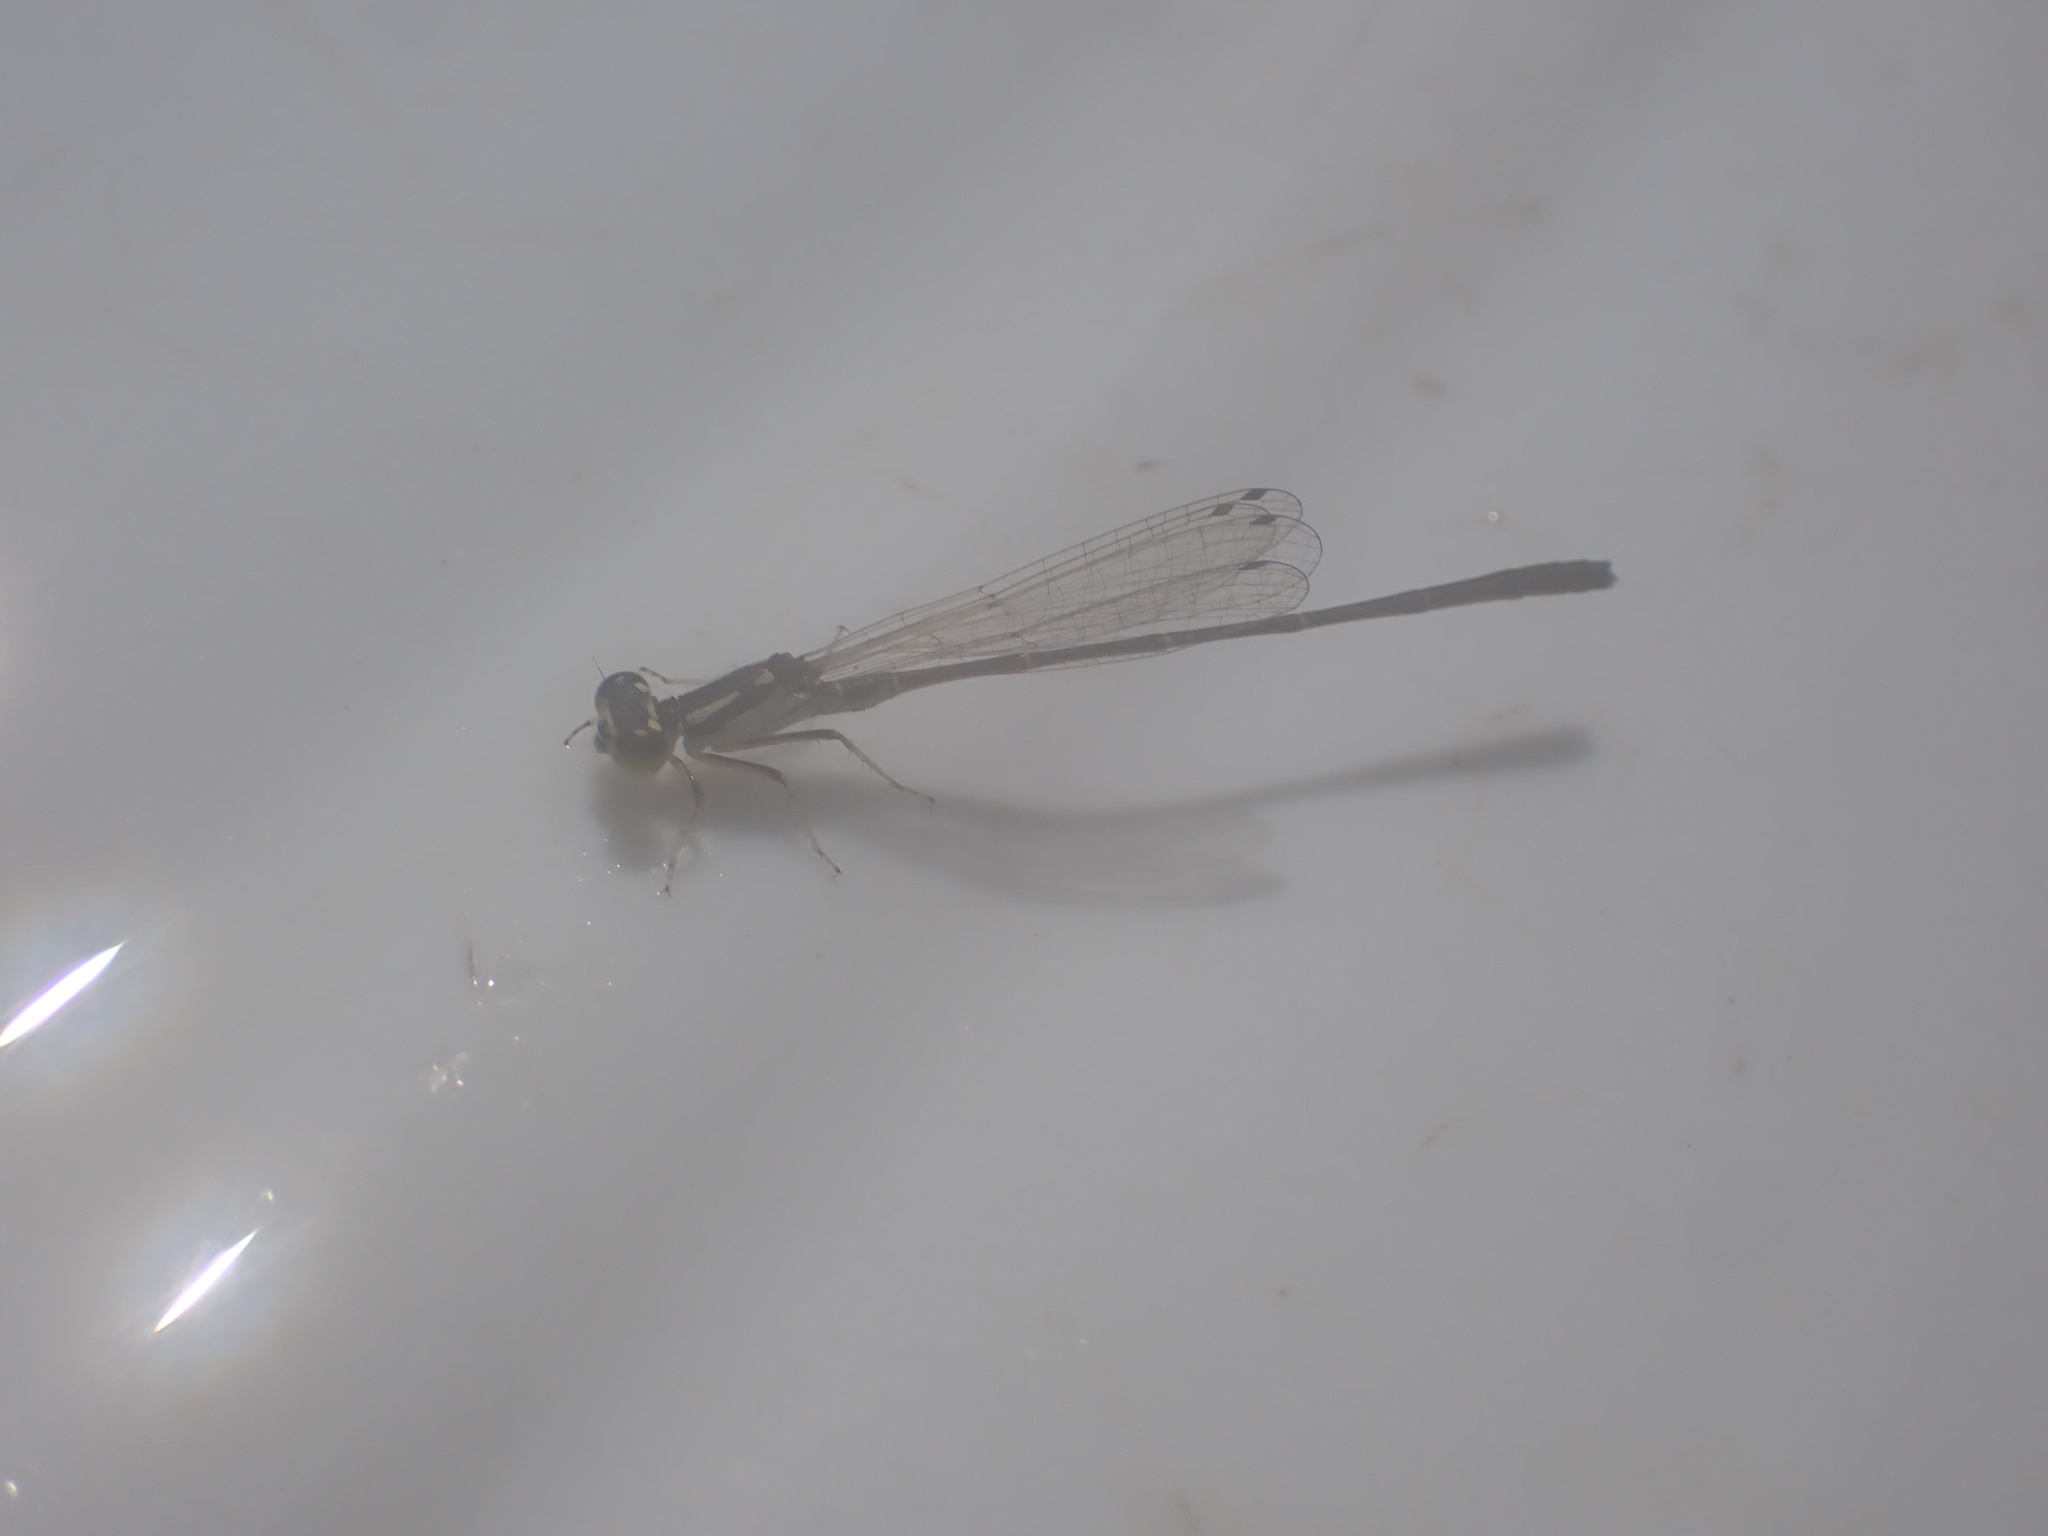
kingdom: Animalia
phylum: Arthropoda
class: Insecta
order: Odonata
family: Coenagrionidae
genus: Ischnura
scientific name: Ischnura posita
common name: Fragile forktail
